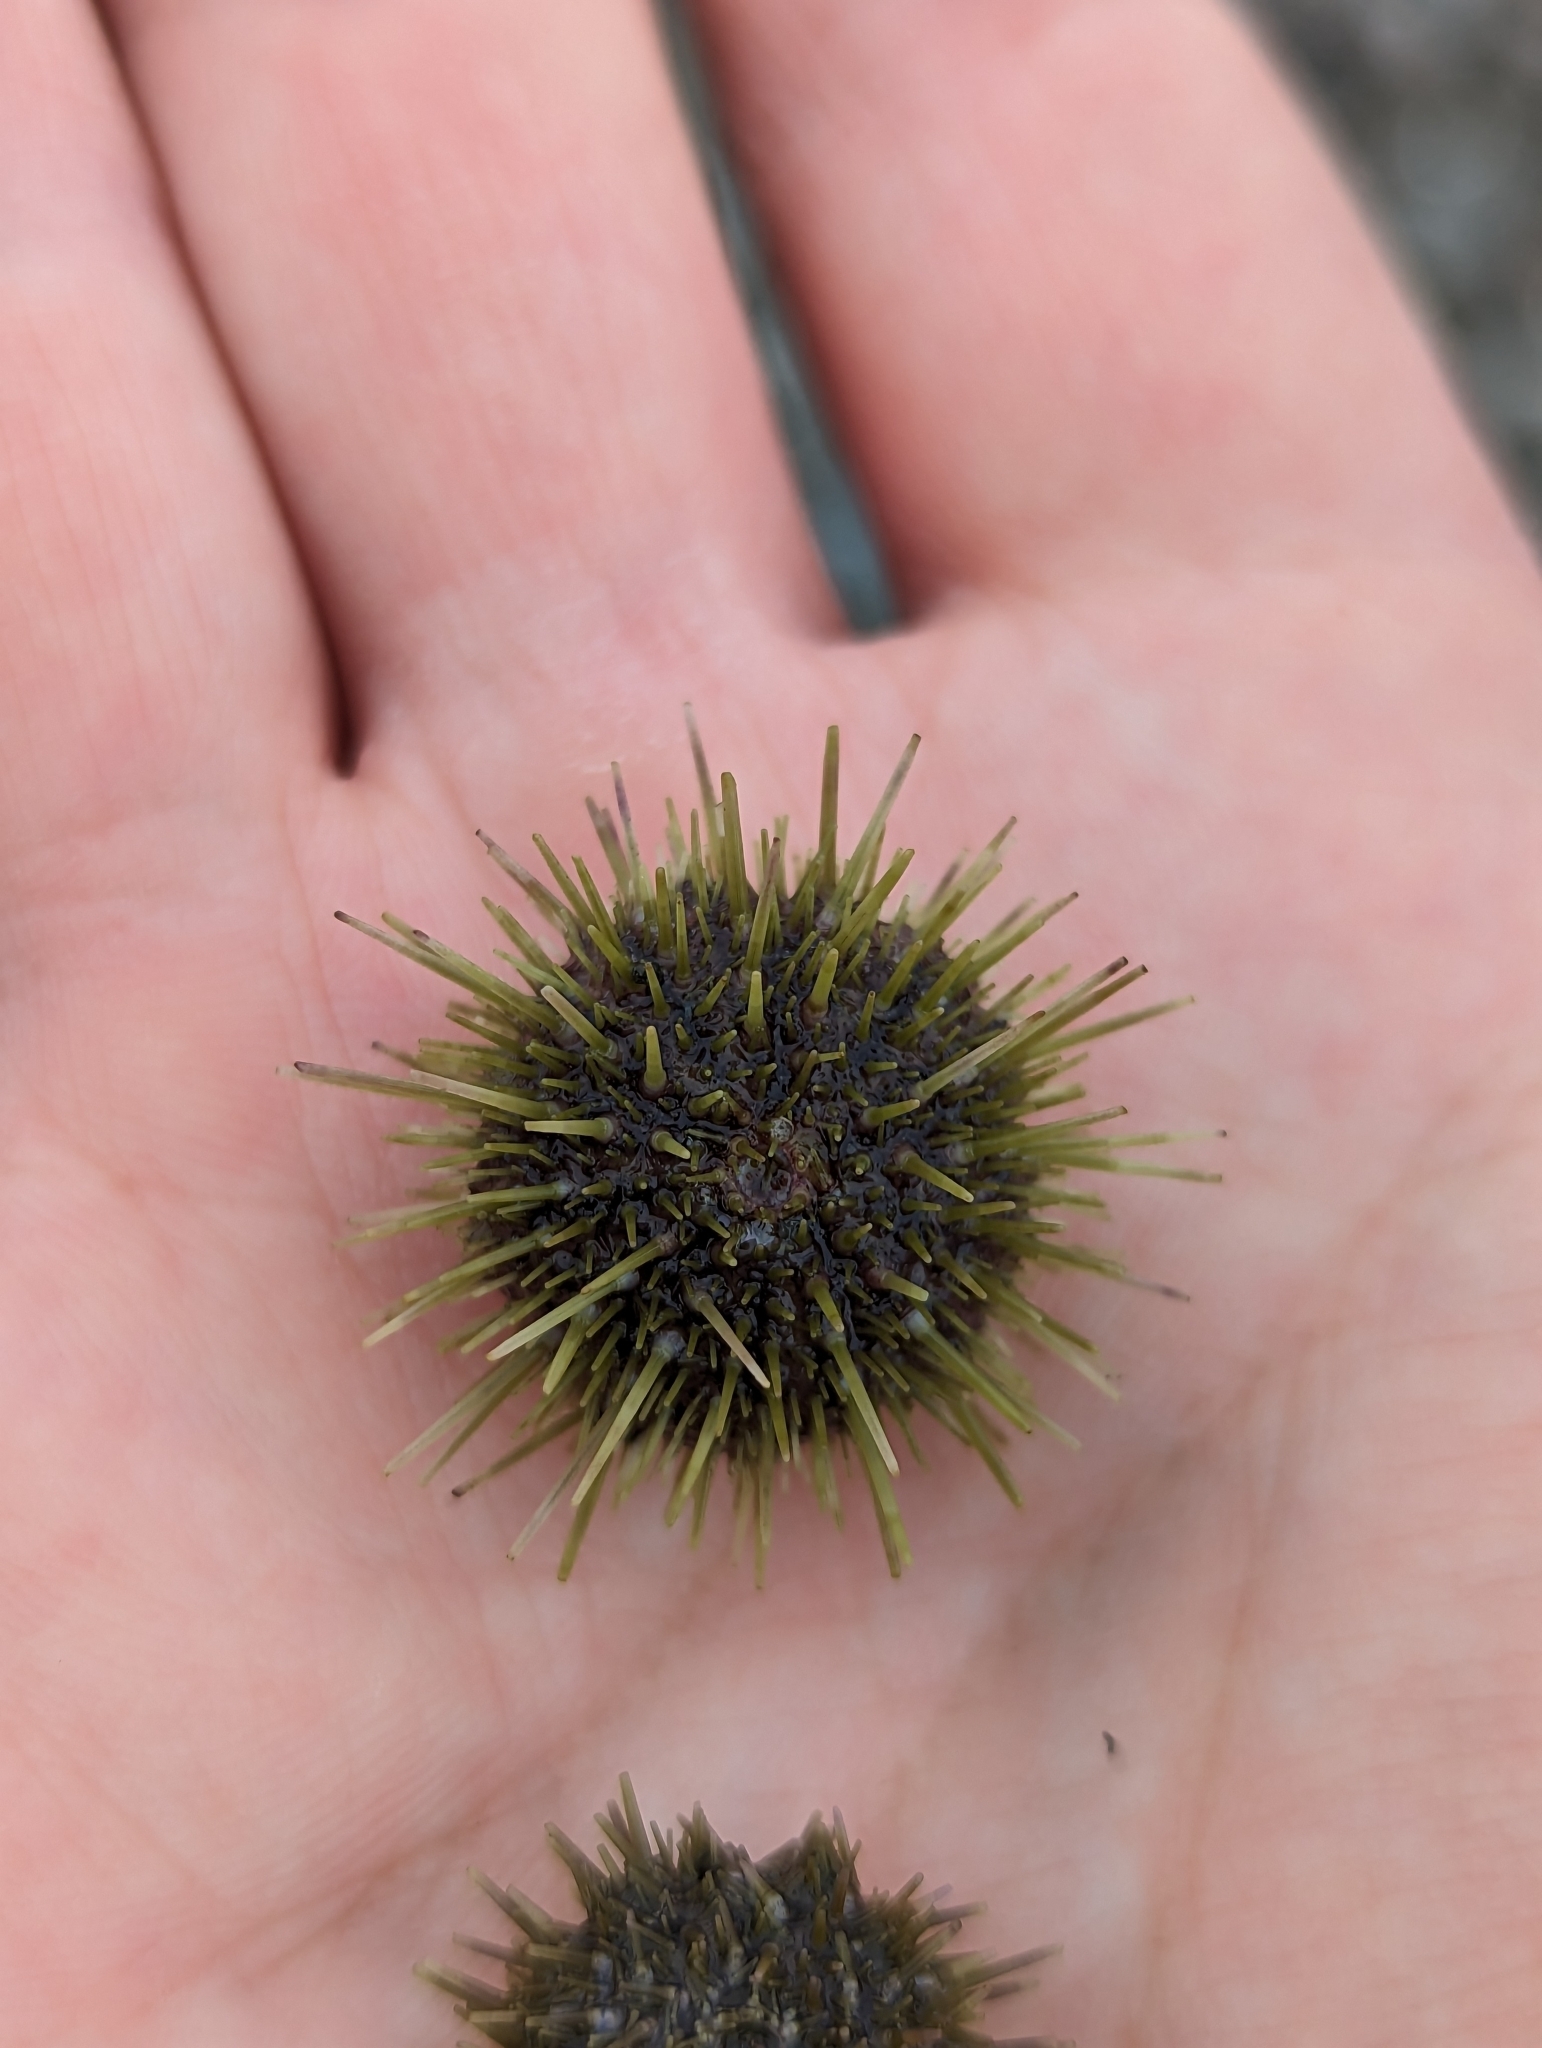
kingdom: Animalia
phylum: Echinodermata
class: Echinoidea
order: Camarodonta
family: Strongylocentrotidae
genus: Strongylocentrotus
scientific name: Strongylocentrotus droebachiensis
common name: Northern sea urchin
